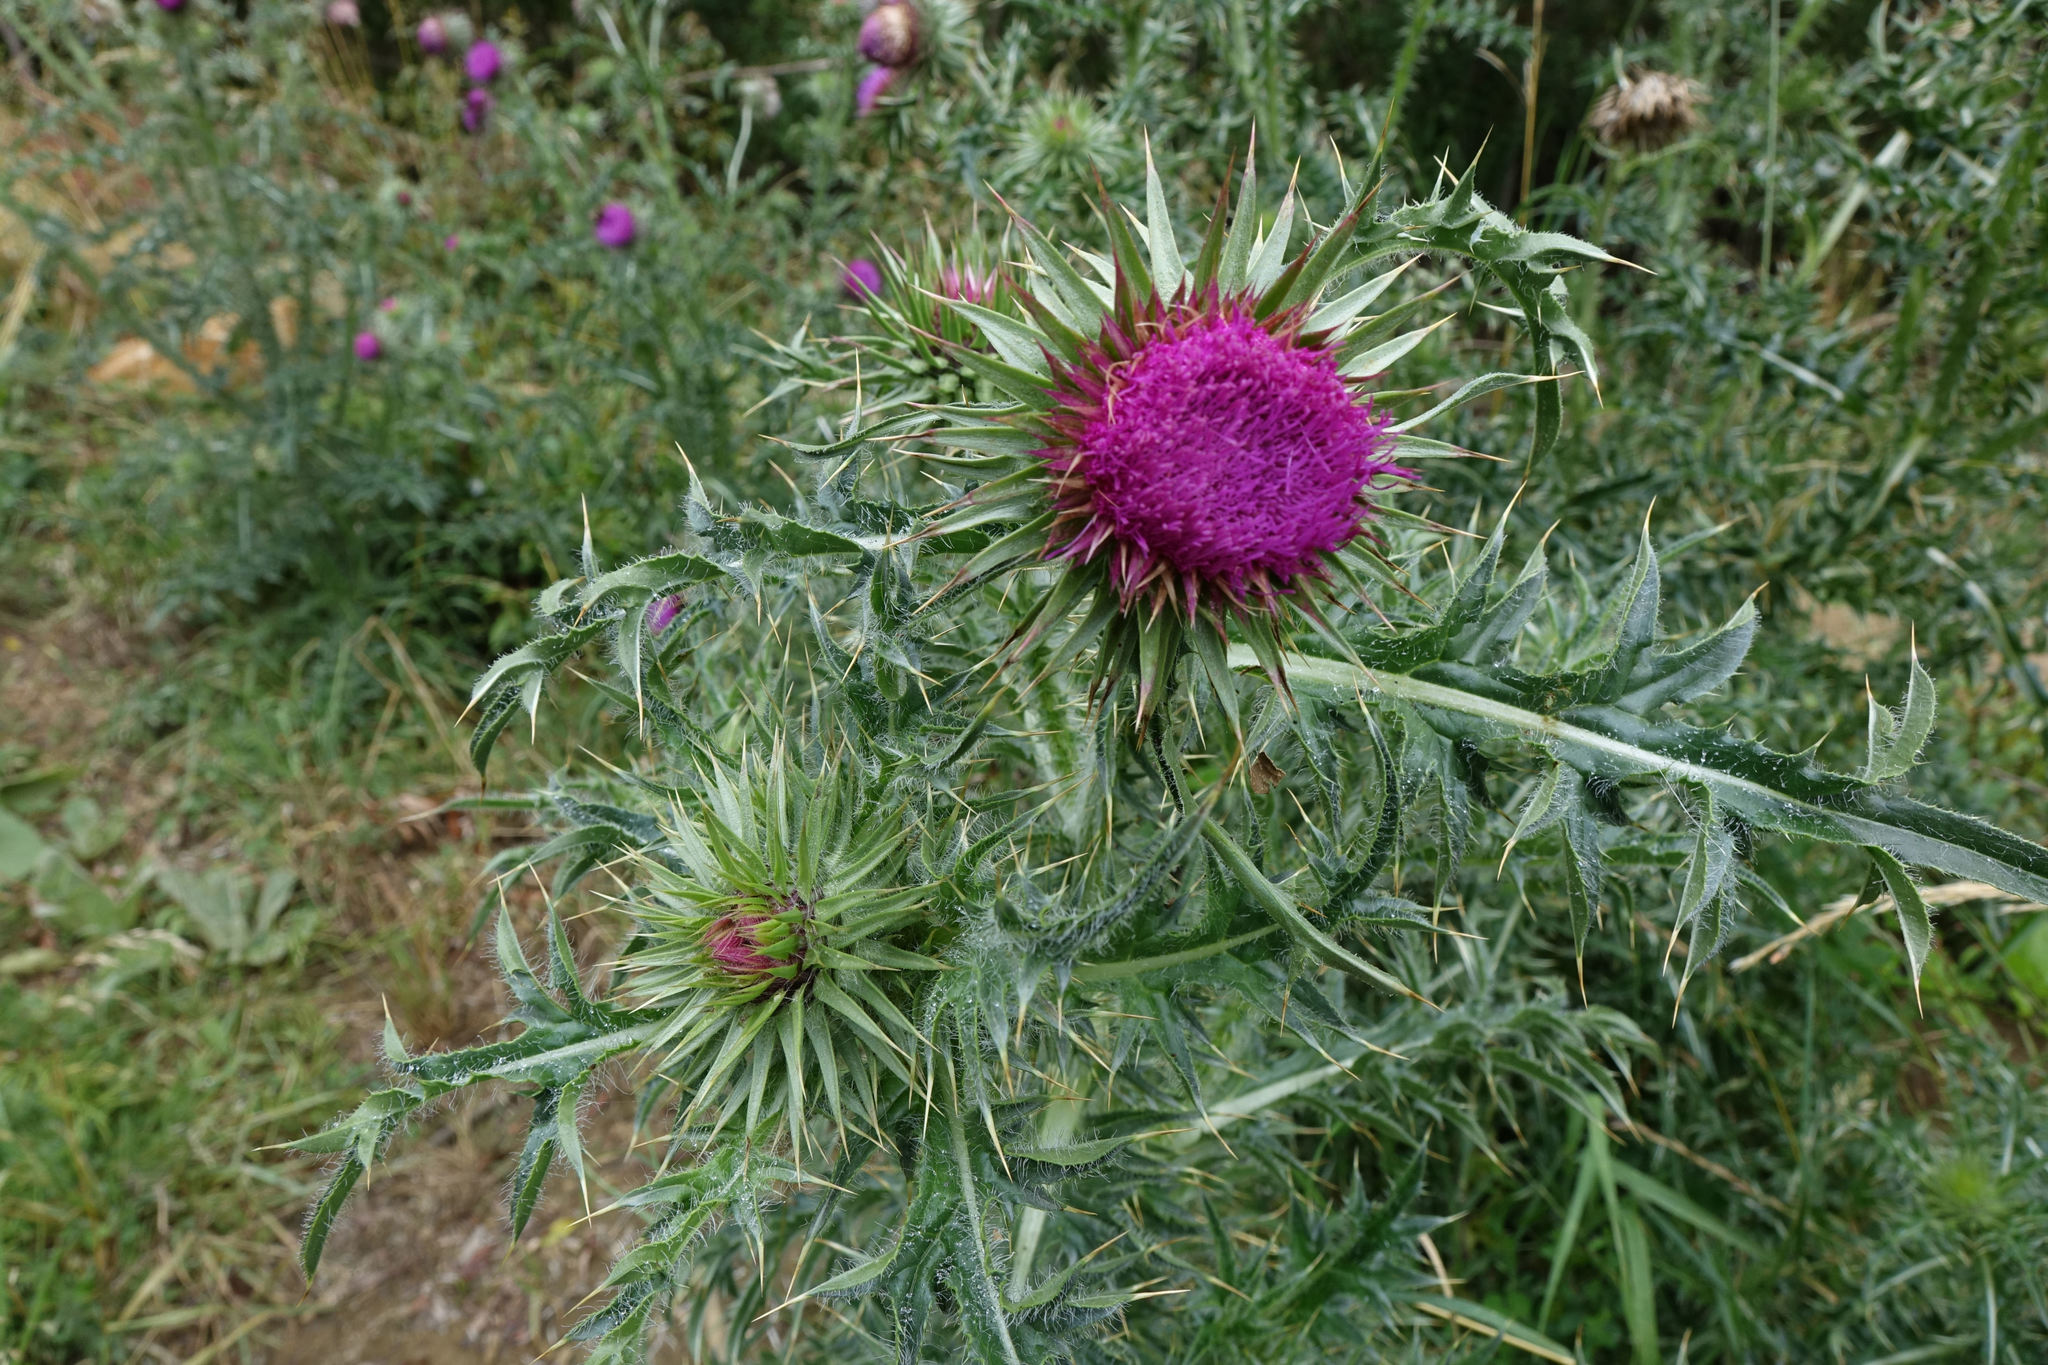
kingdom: Plantae
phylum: Tracheophyta
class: Magnoliopsida
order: Asterales
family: Asteraceae
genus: Carduus
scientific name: Carduus nutans
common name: Musk thistle
